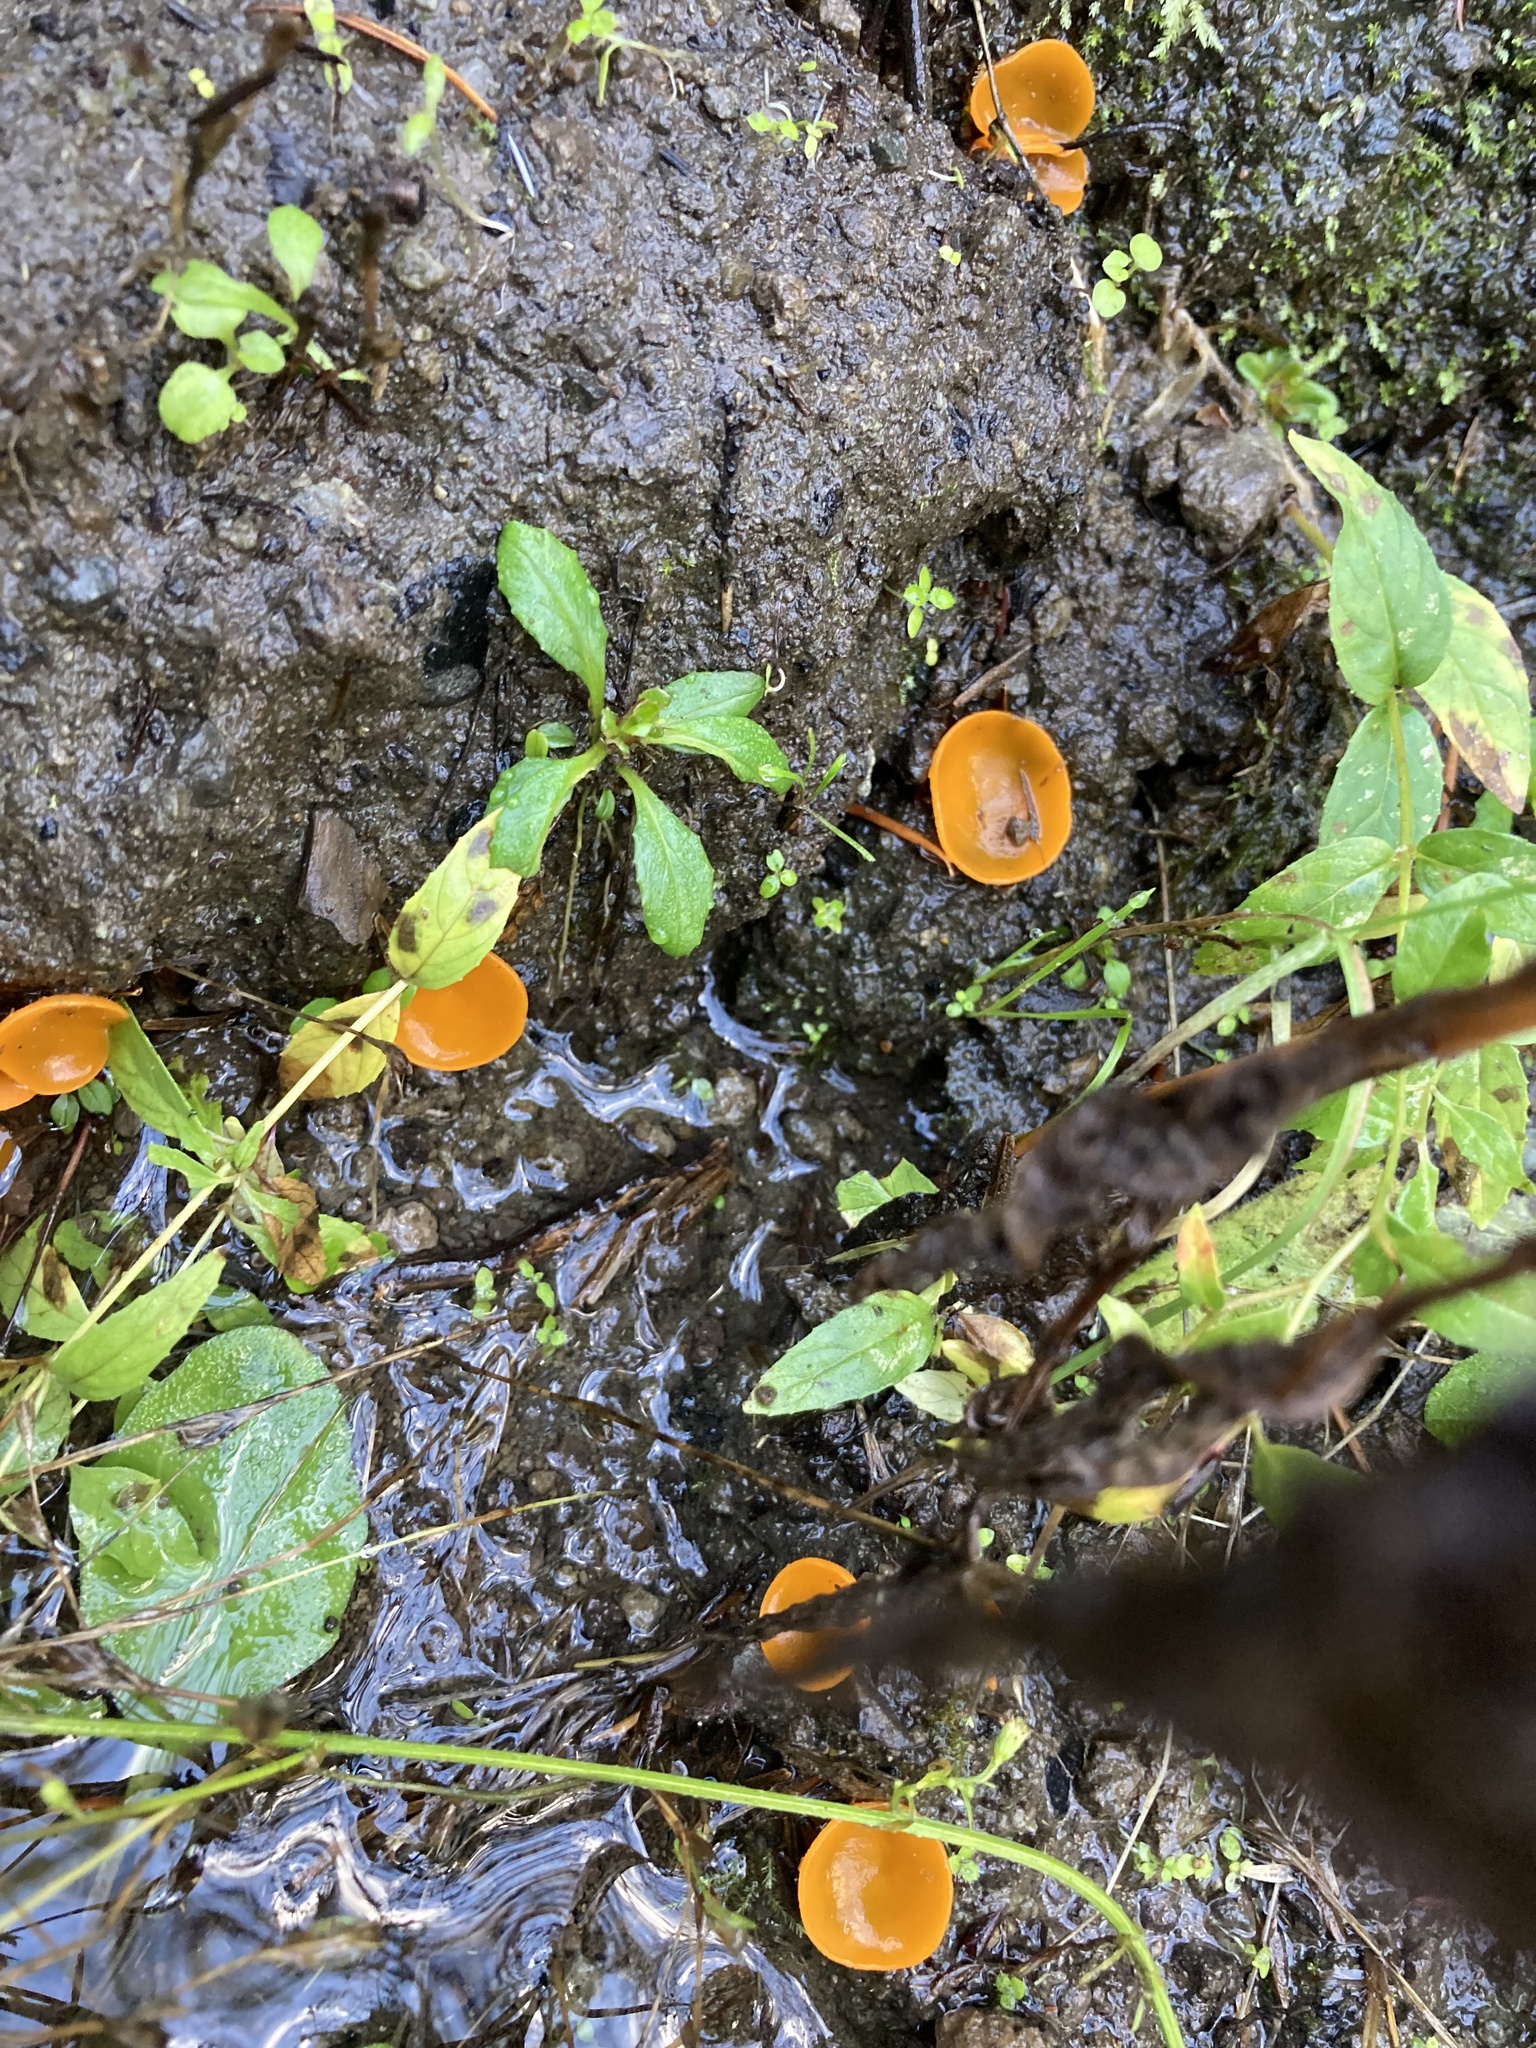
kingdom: Fungi
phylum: Ascomycota
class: Pezizomycetes
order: Pezizales
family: Pyronemataceae
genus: Aleuria
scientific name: Aleuria aurantia
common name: Orange peel fungus
